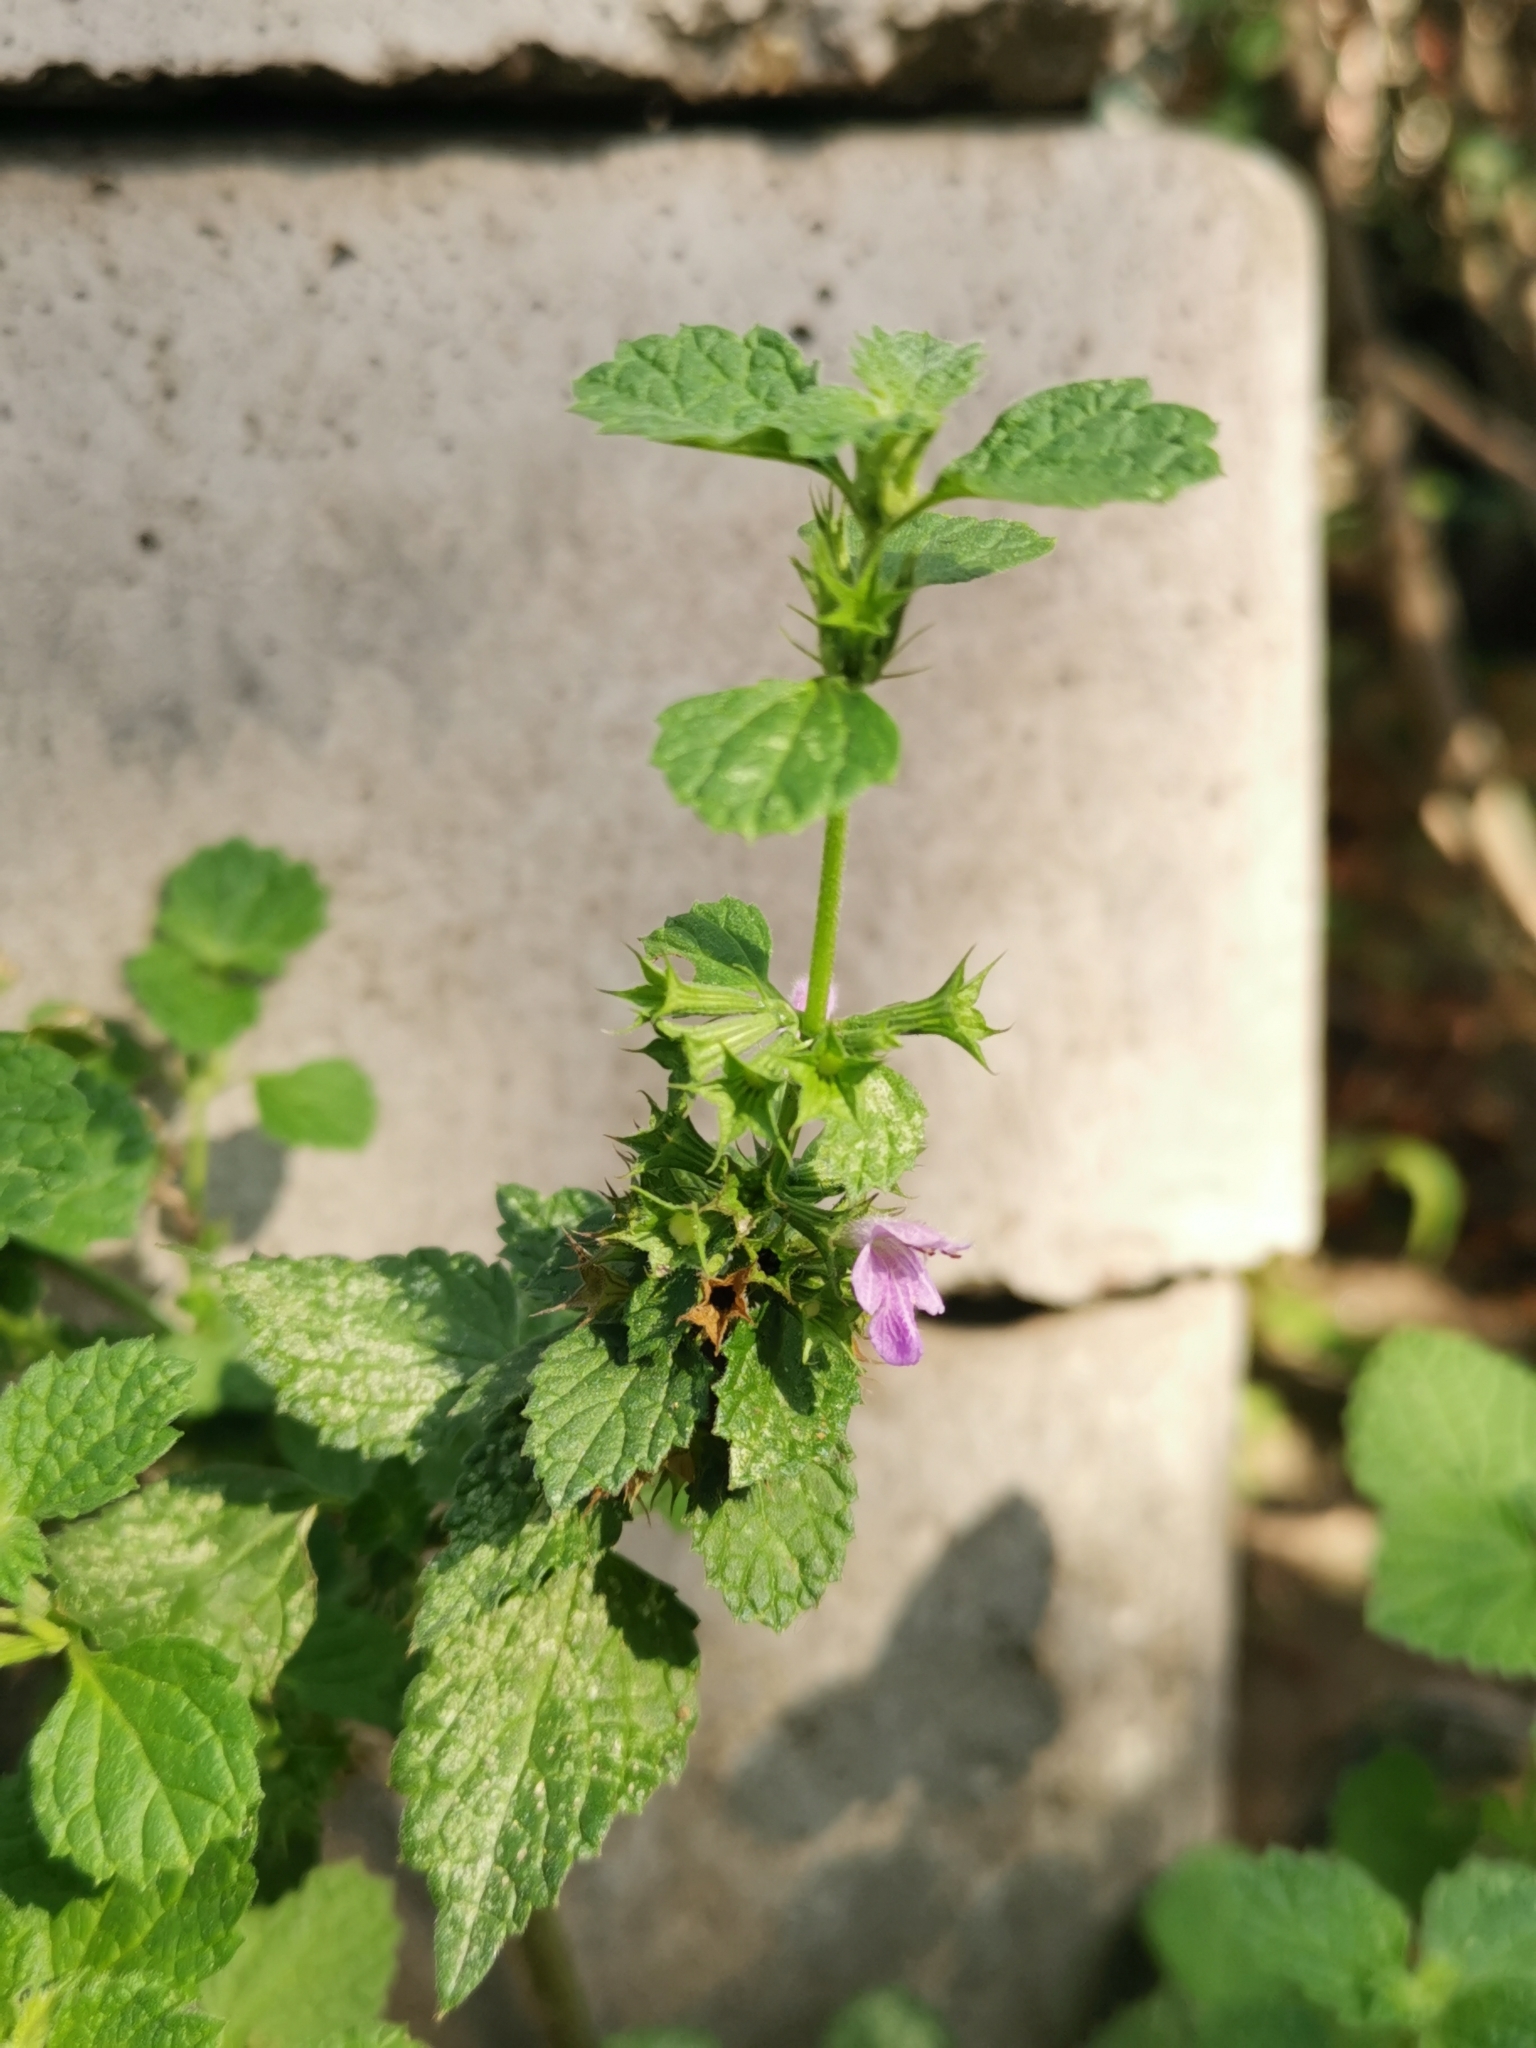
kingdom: Plantae
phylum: Tracheophyta
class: Magnoliopsida
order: Lamiales
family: Lamiaceae
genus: Ballota
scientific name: Ballota nigra
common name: Black horehound
